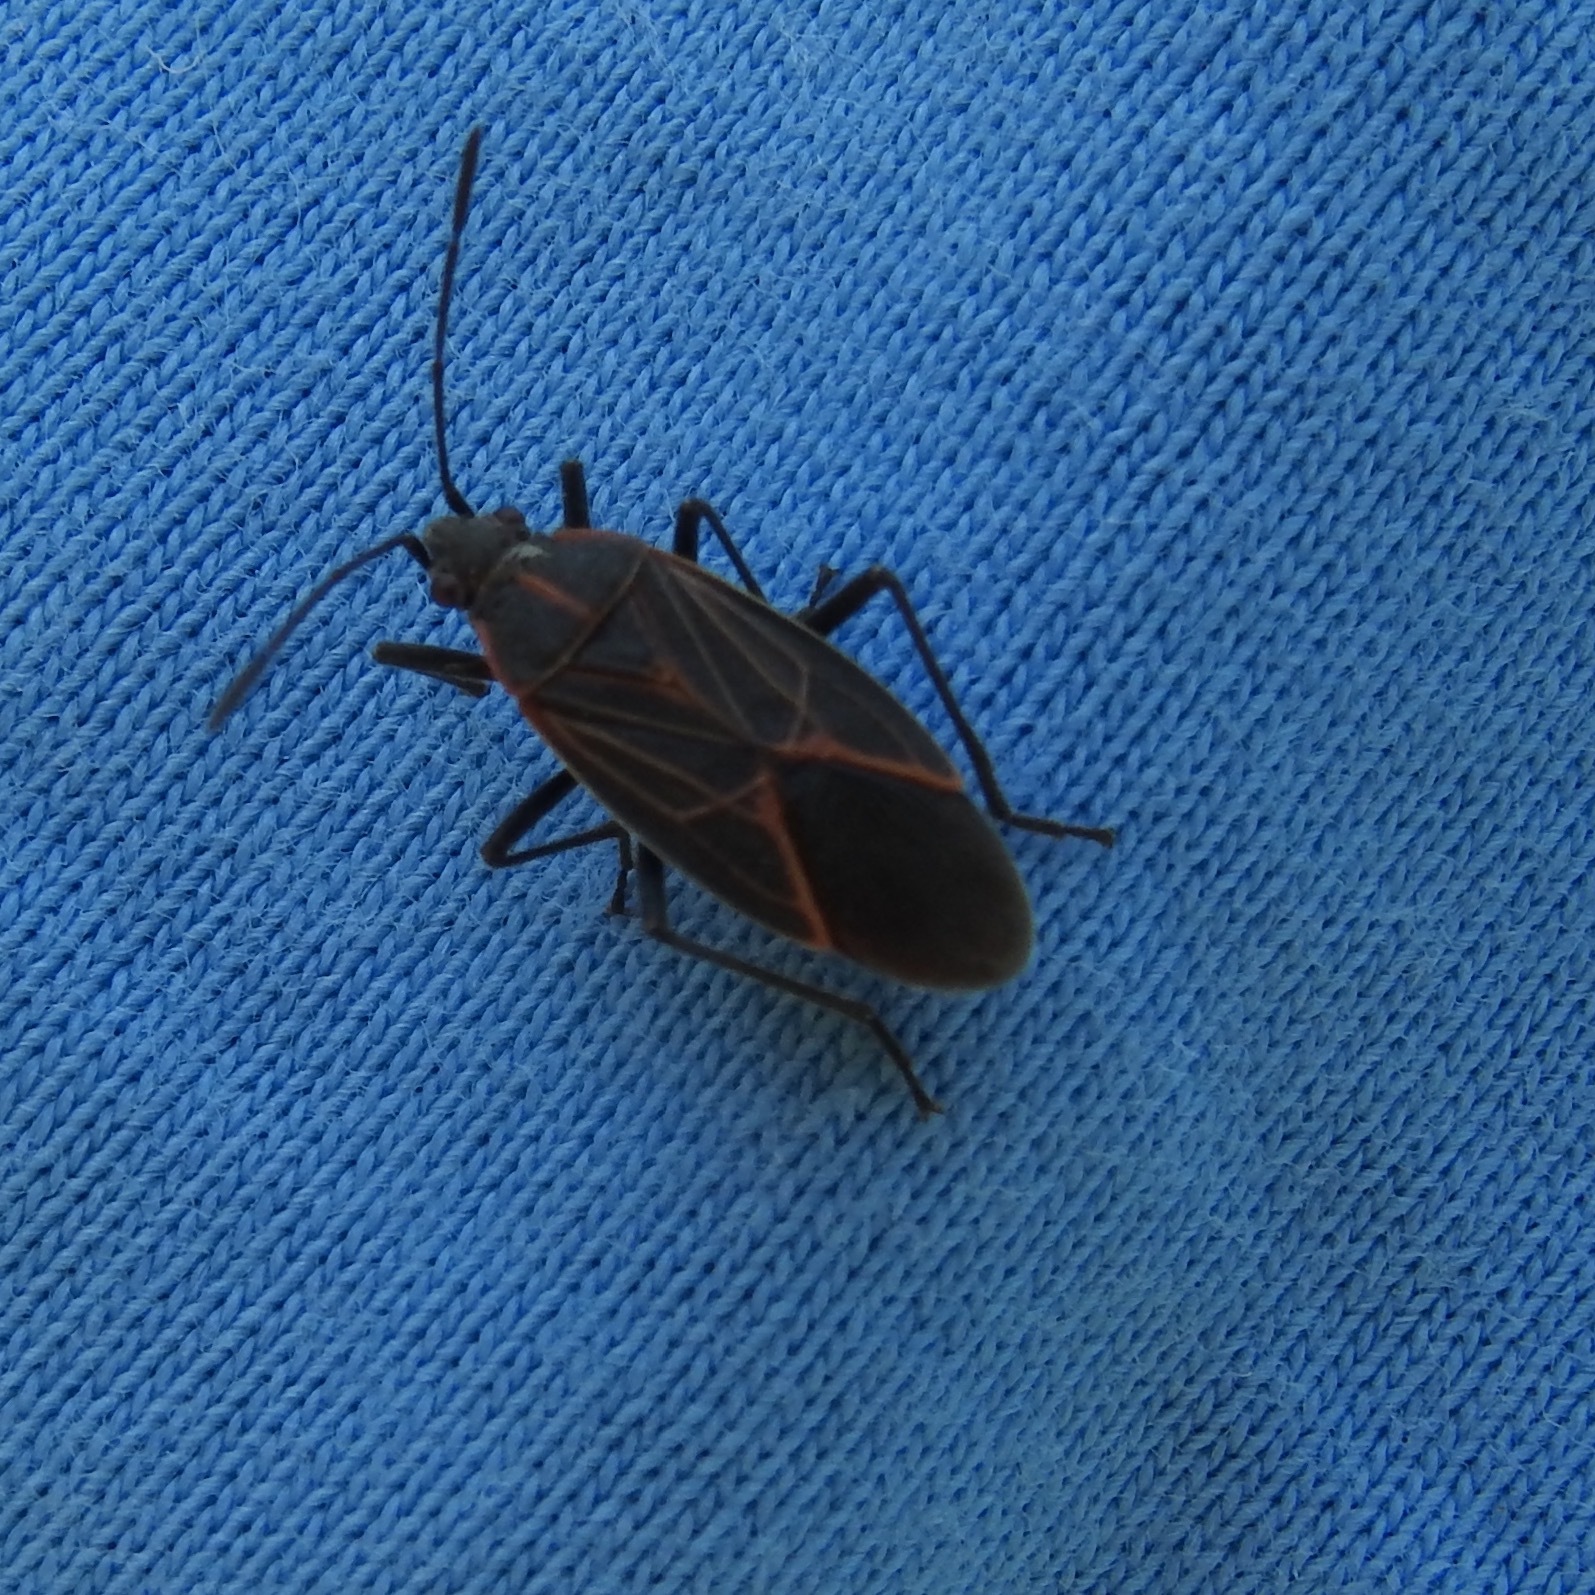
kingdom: Animalia
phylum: Arthropoda
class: Insecta
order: Hemiptera
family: Rhopalidae
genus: Boisea
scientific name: Boisea rubrolineata
